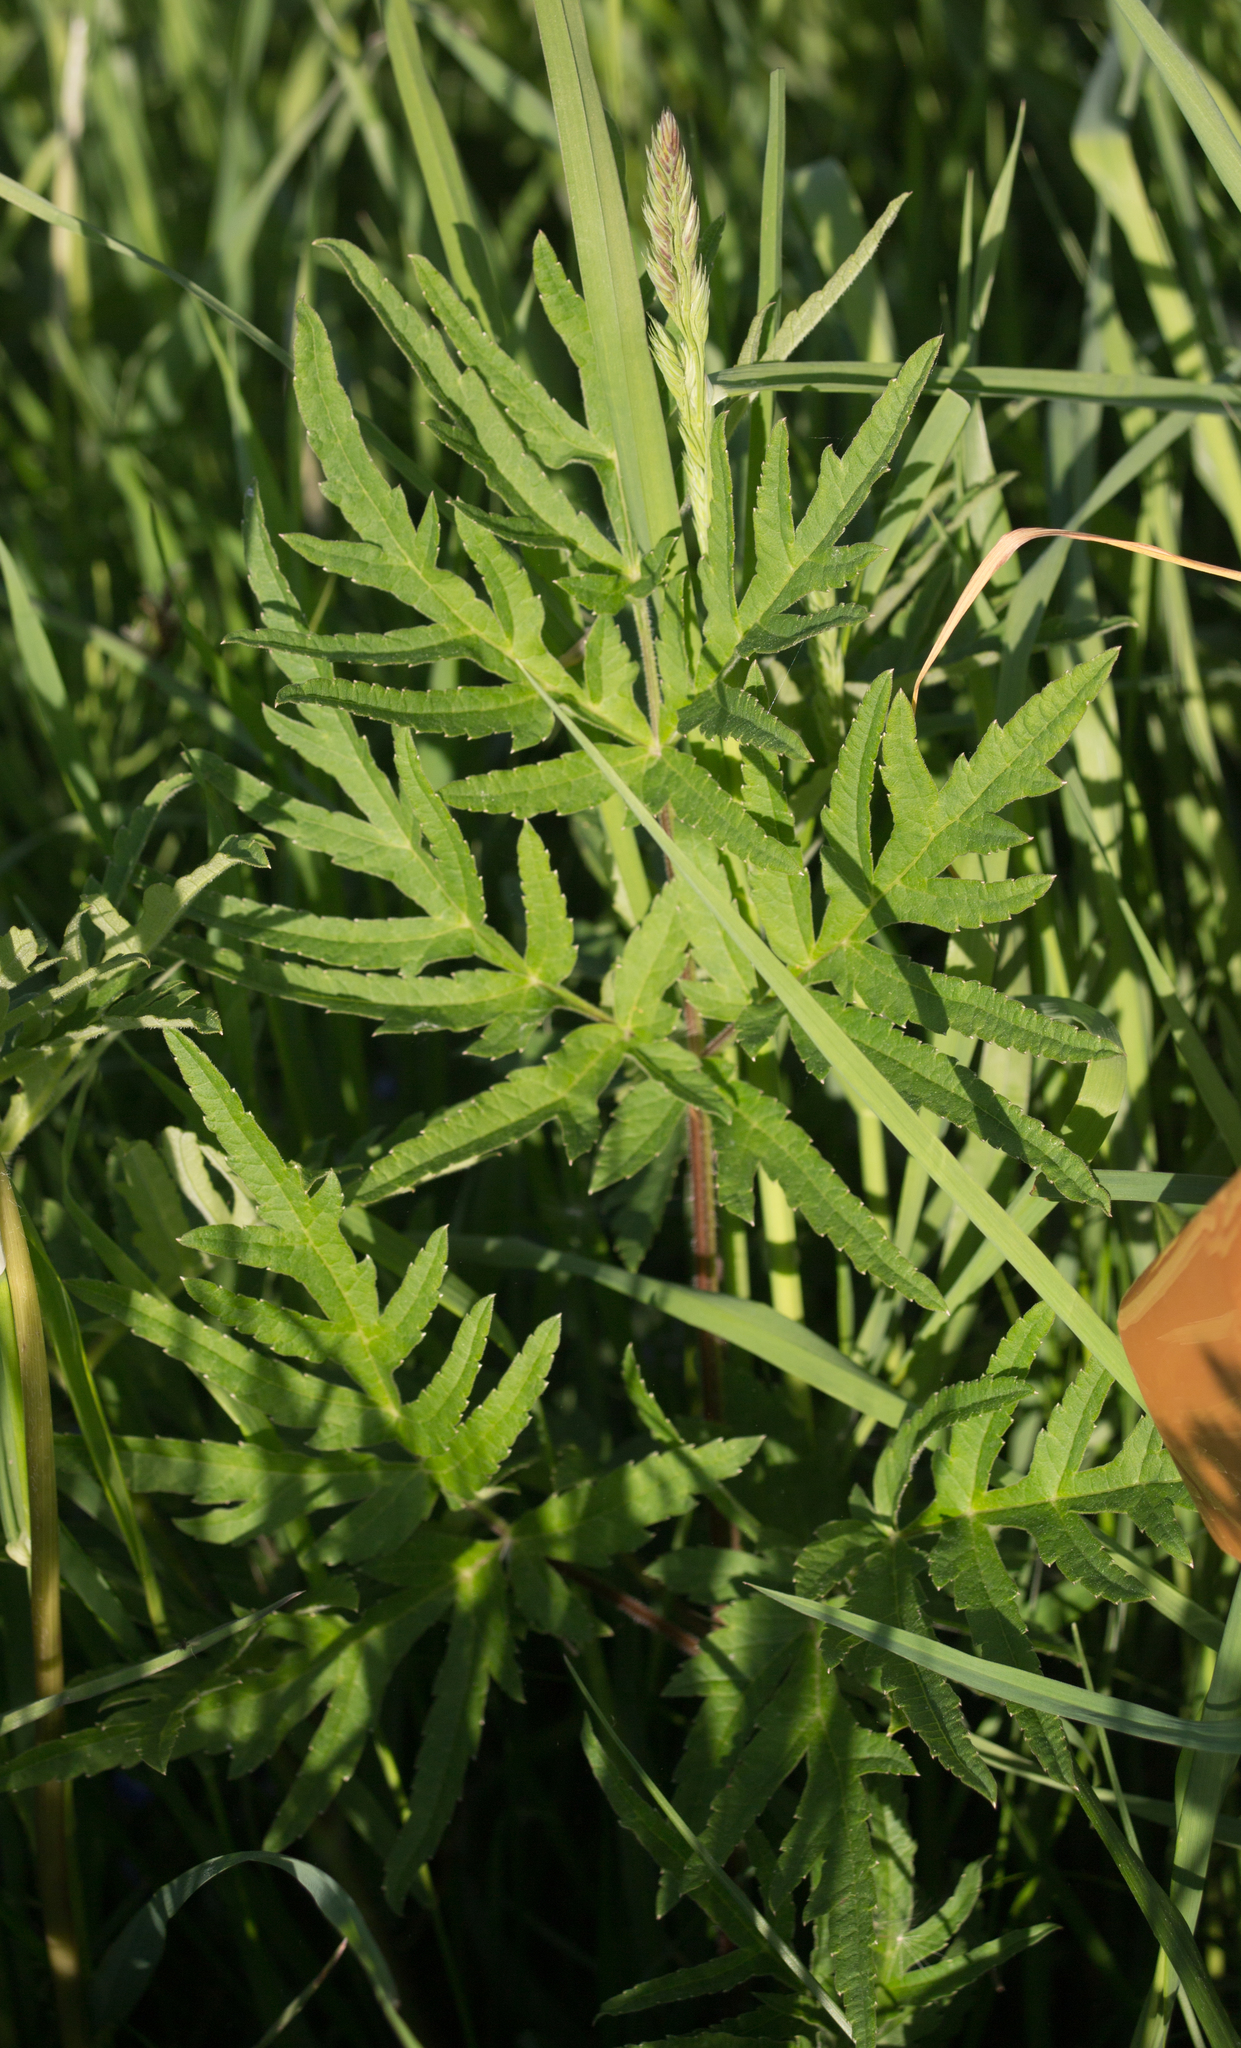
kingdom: Plantae
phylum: Tracheophyta
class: Magnoliopsida
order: Apiales
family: Apiaceae
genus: Heracleum
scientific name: Heracleum sphondylium
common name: Hogweed
